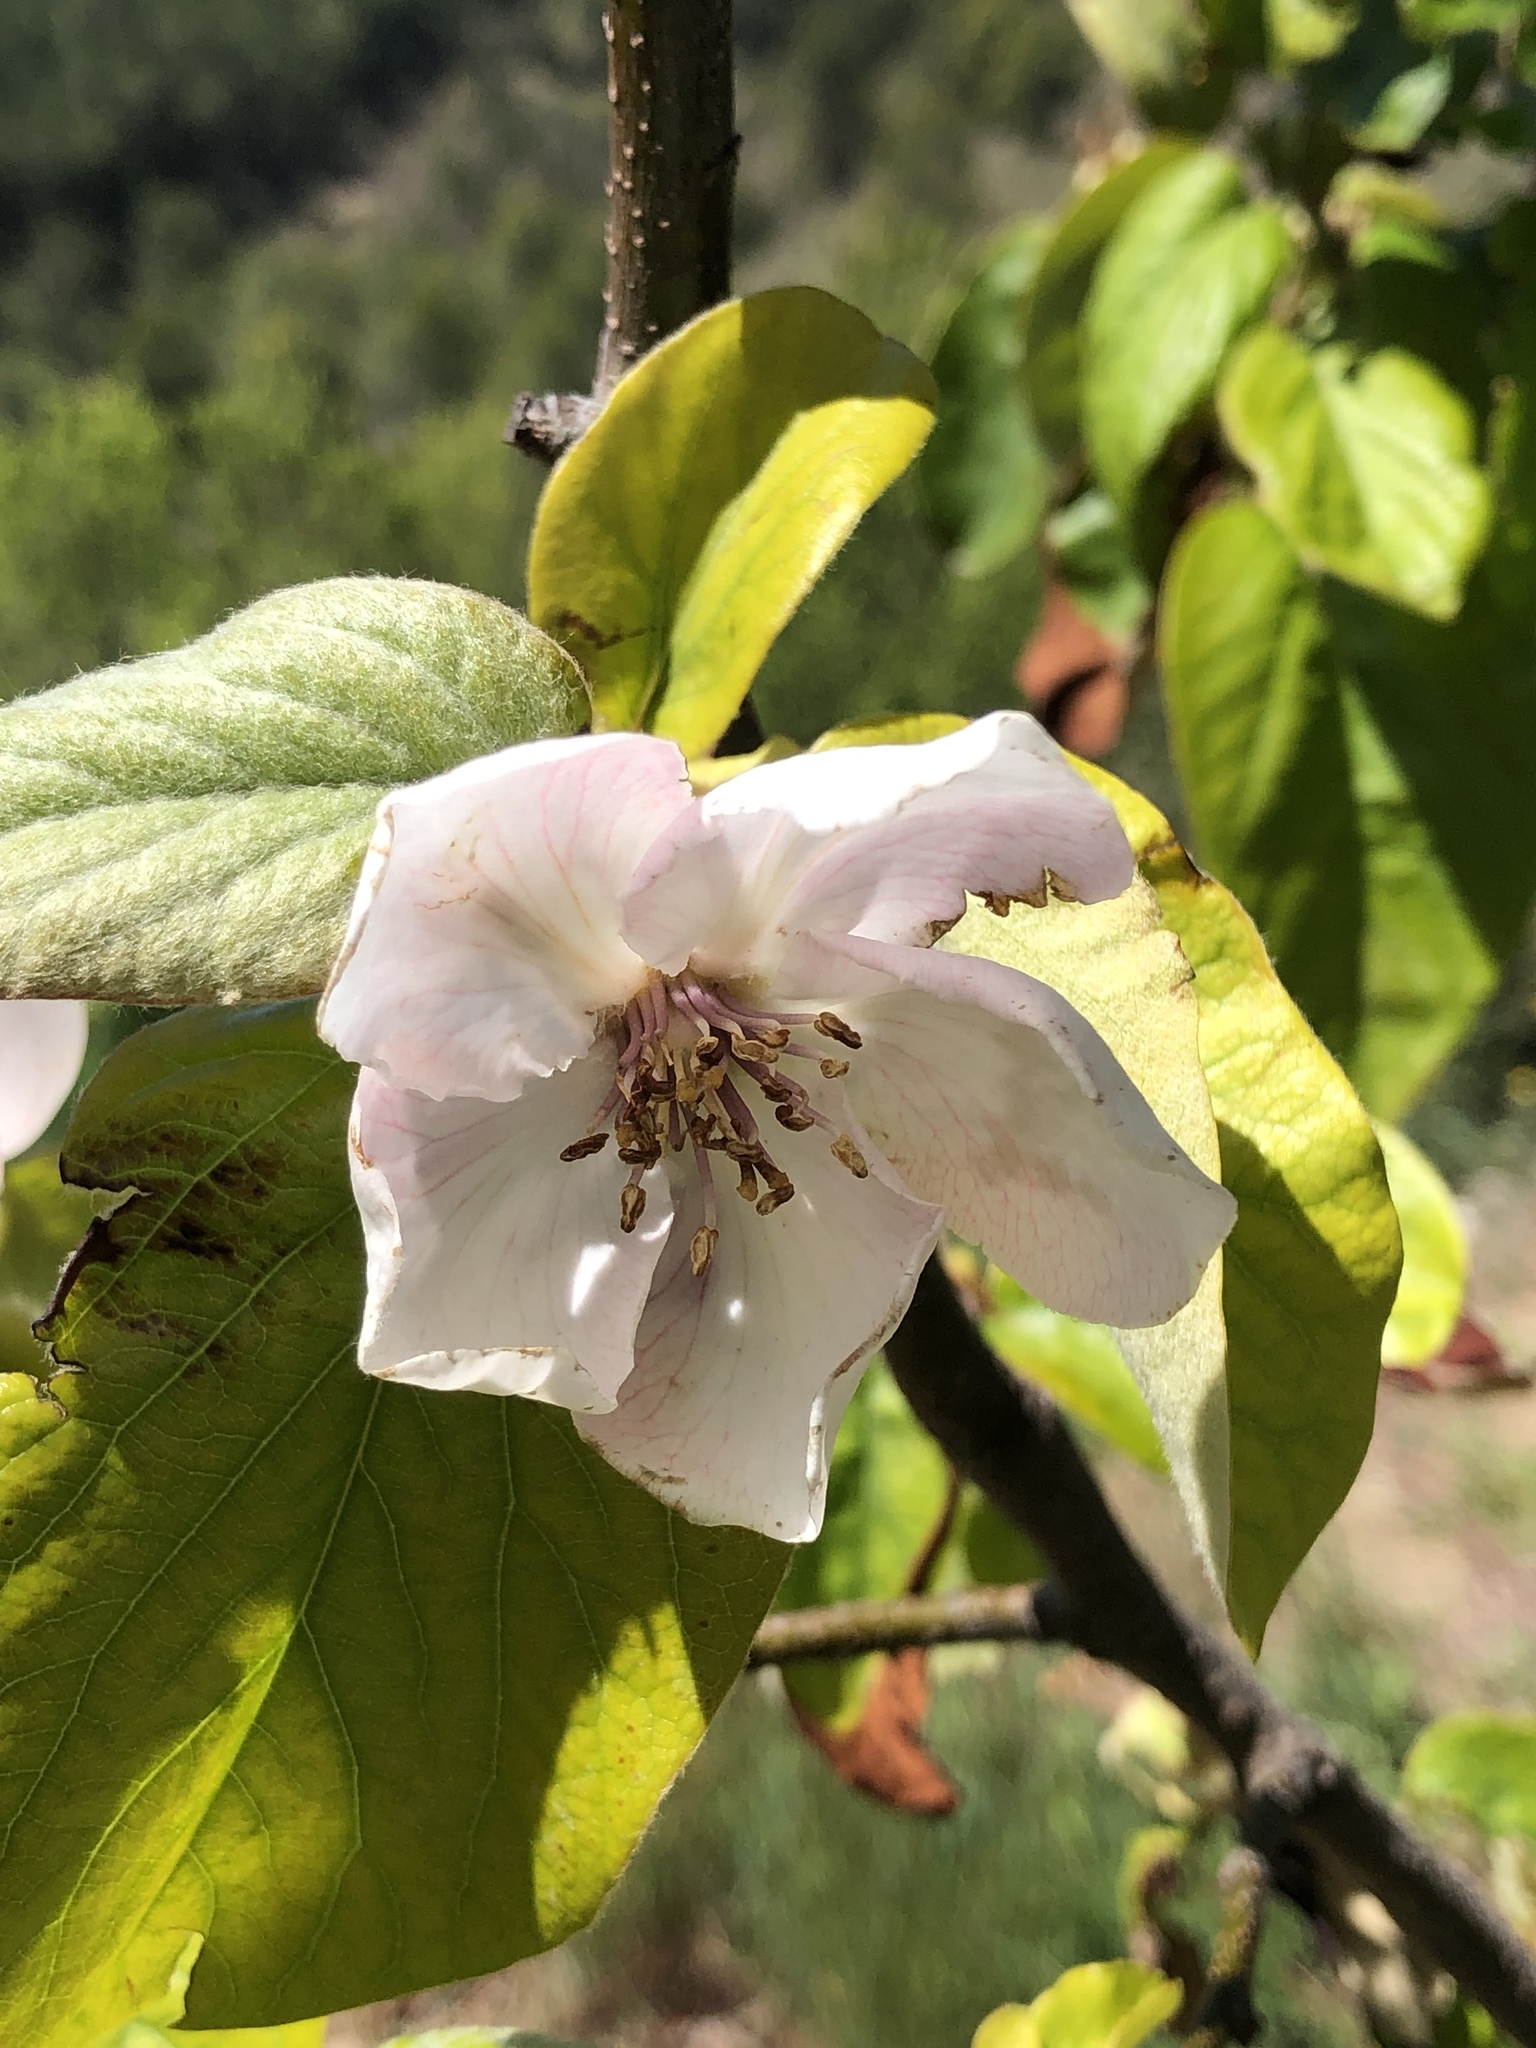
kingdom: Plantae
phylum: Tracheophyta
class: Magnoliopsida
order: Rosales
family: Rosaceae
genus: Cydonia
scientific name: Cydonia oblonga
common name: Quince
